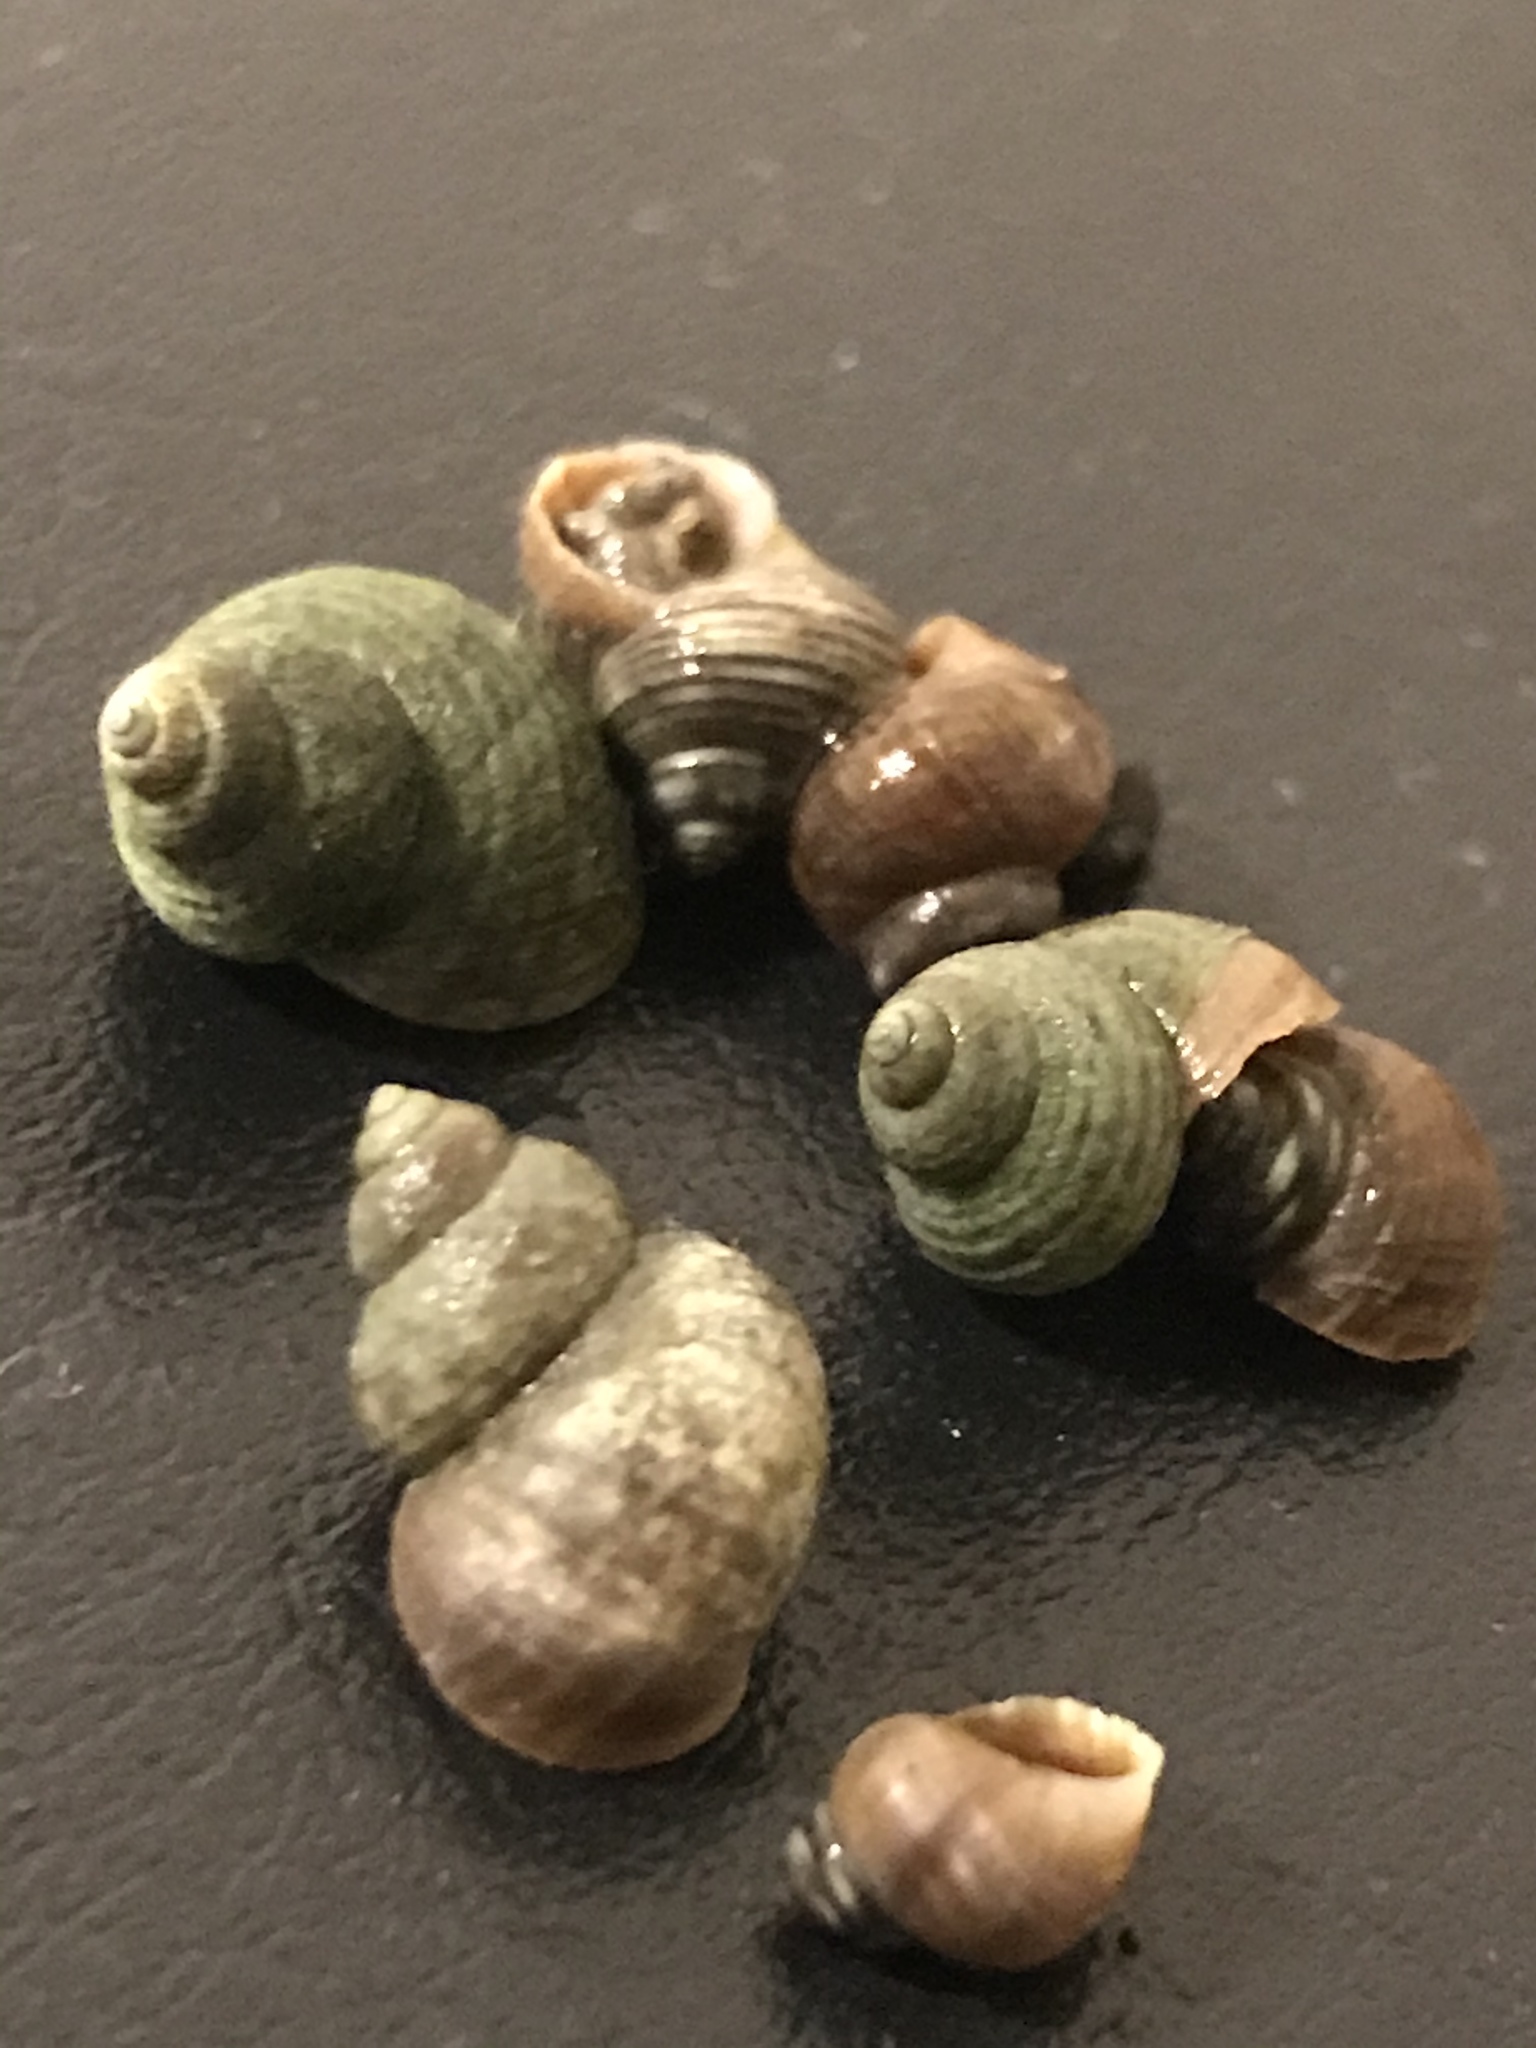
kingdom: Animalia
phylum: Mollusca
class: Gastropoda
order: Littorinimorpha
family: Littorinidae
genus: Littorina
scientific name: Littorina saxatilis
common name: Black-lined periwinkle
